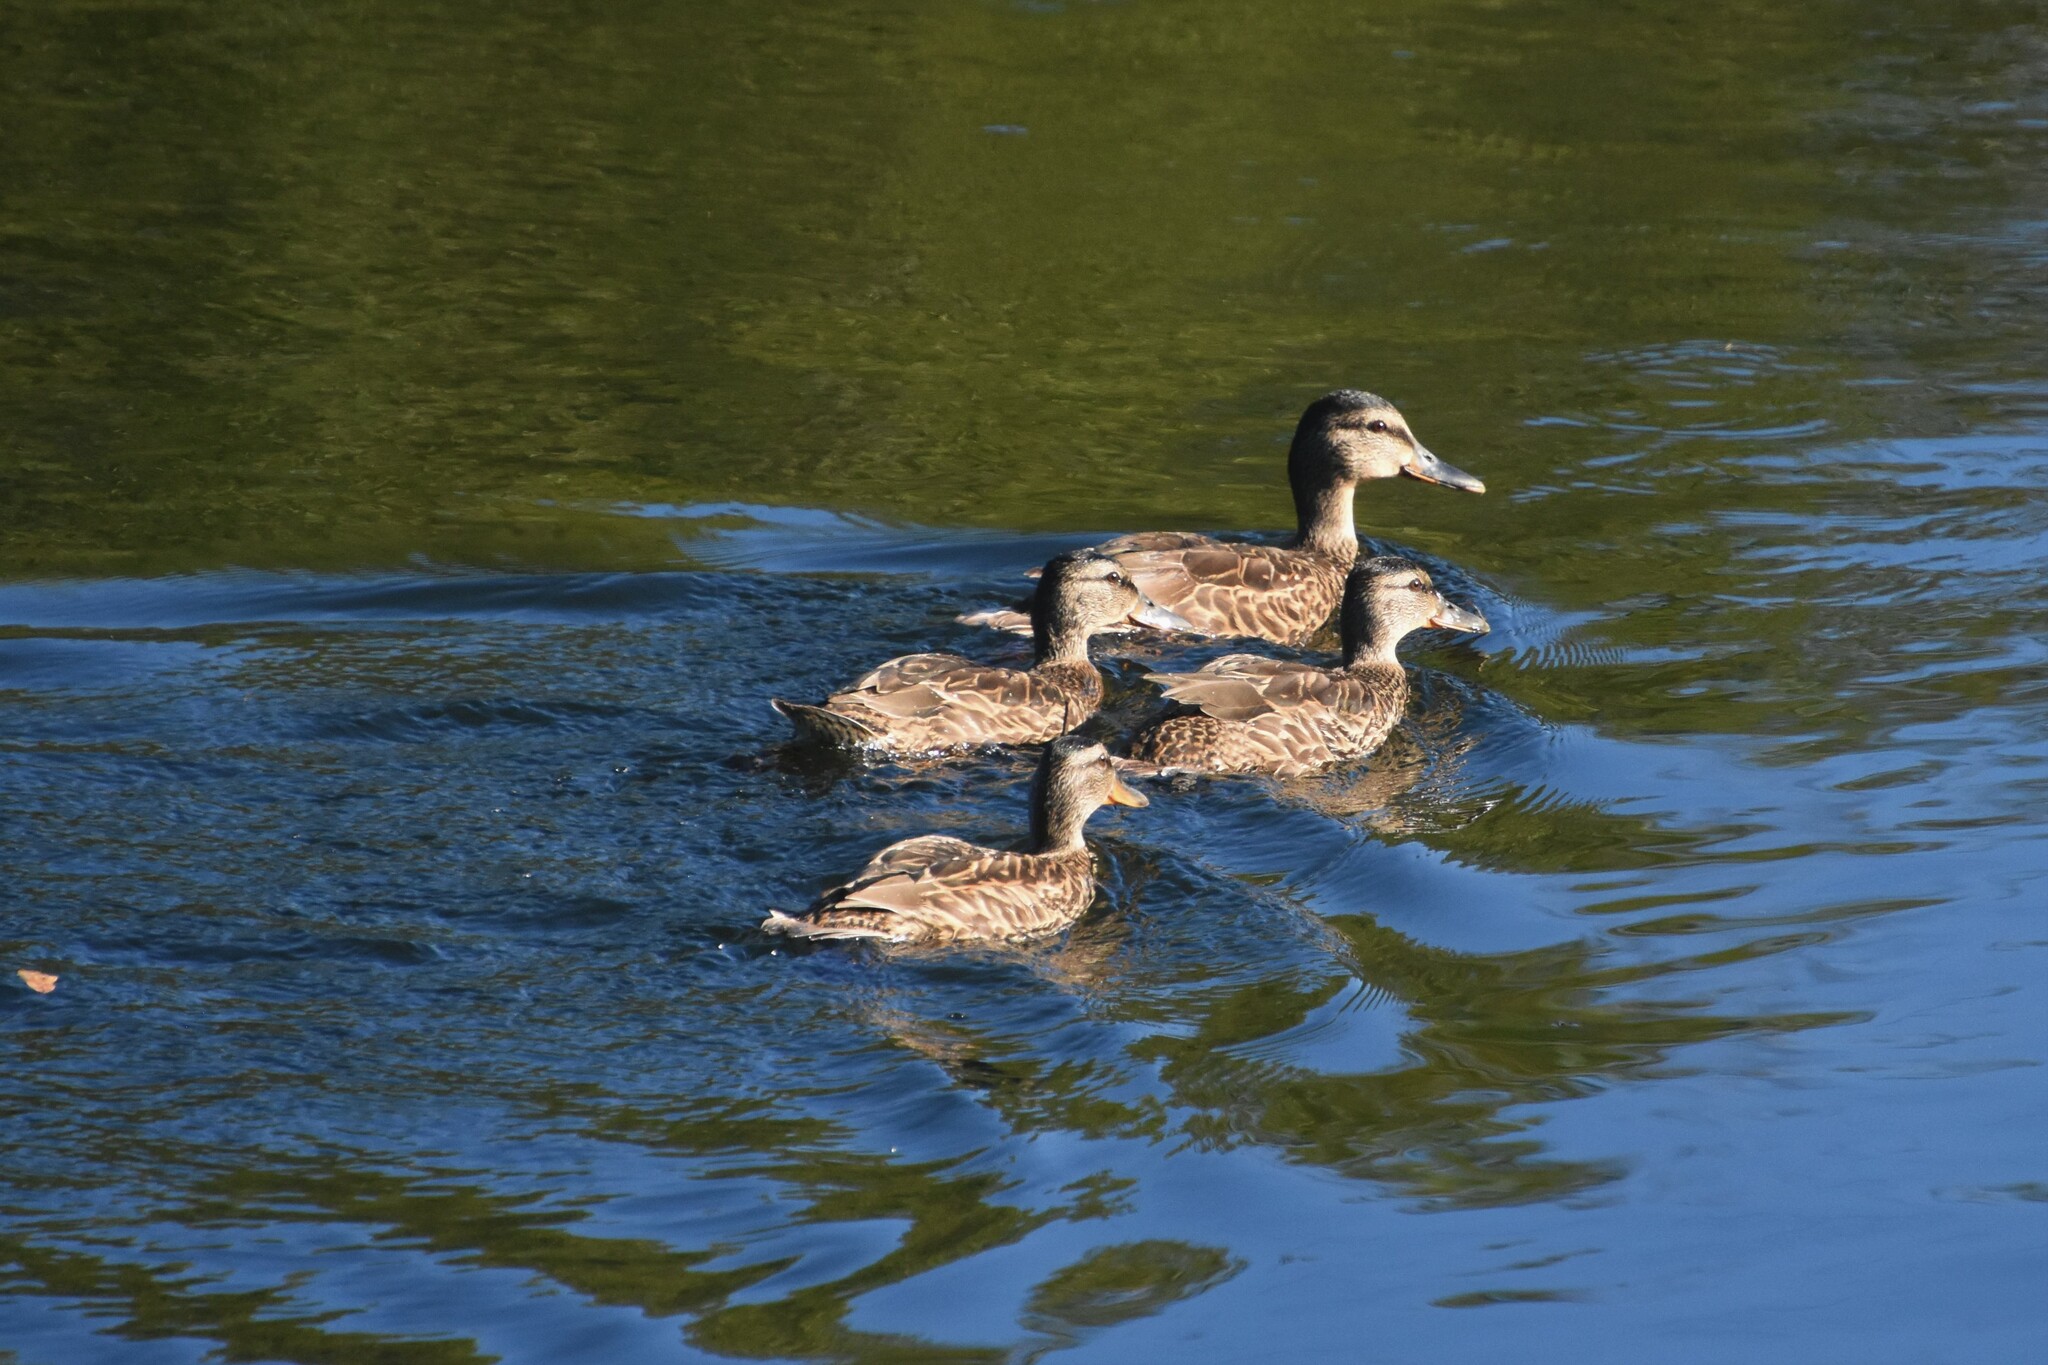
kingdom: Animalia
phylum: Chordata
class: Aves
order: Anseriformes
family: Anatidae
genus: Anas
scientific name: Anas platyrhynchos
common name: Mallard
